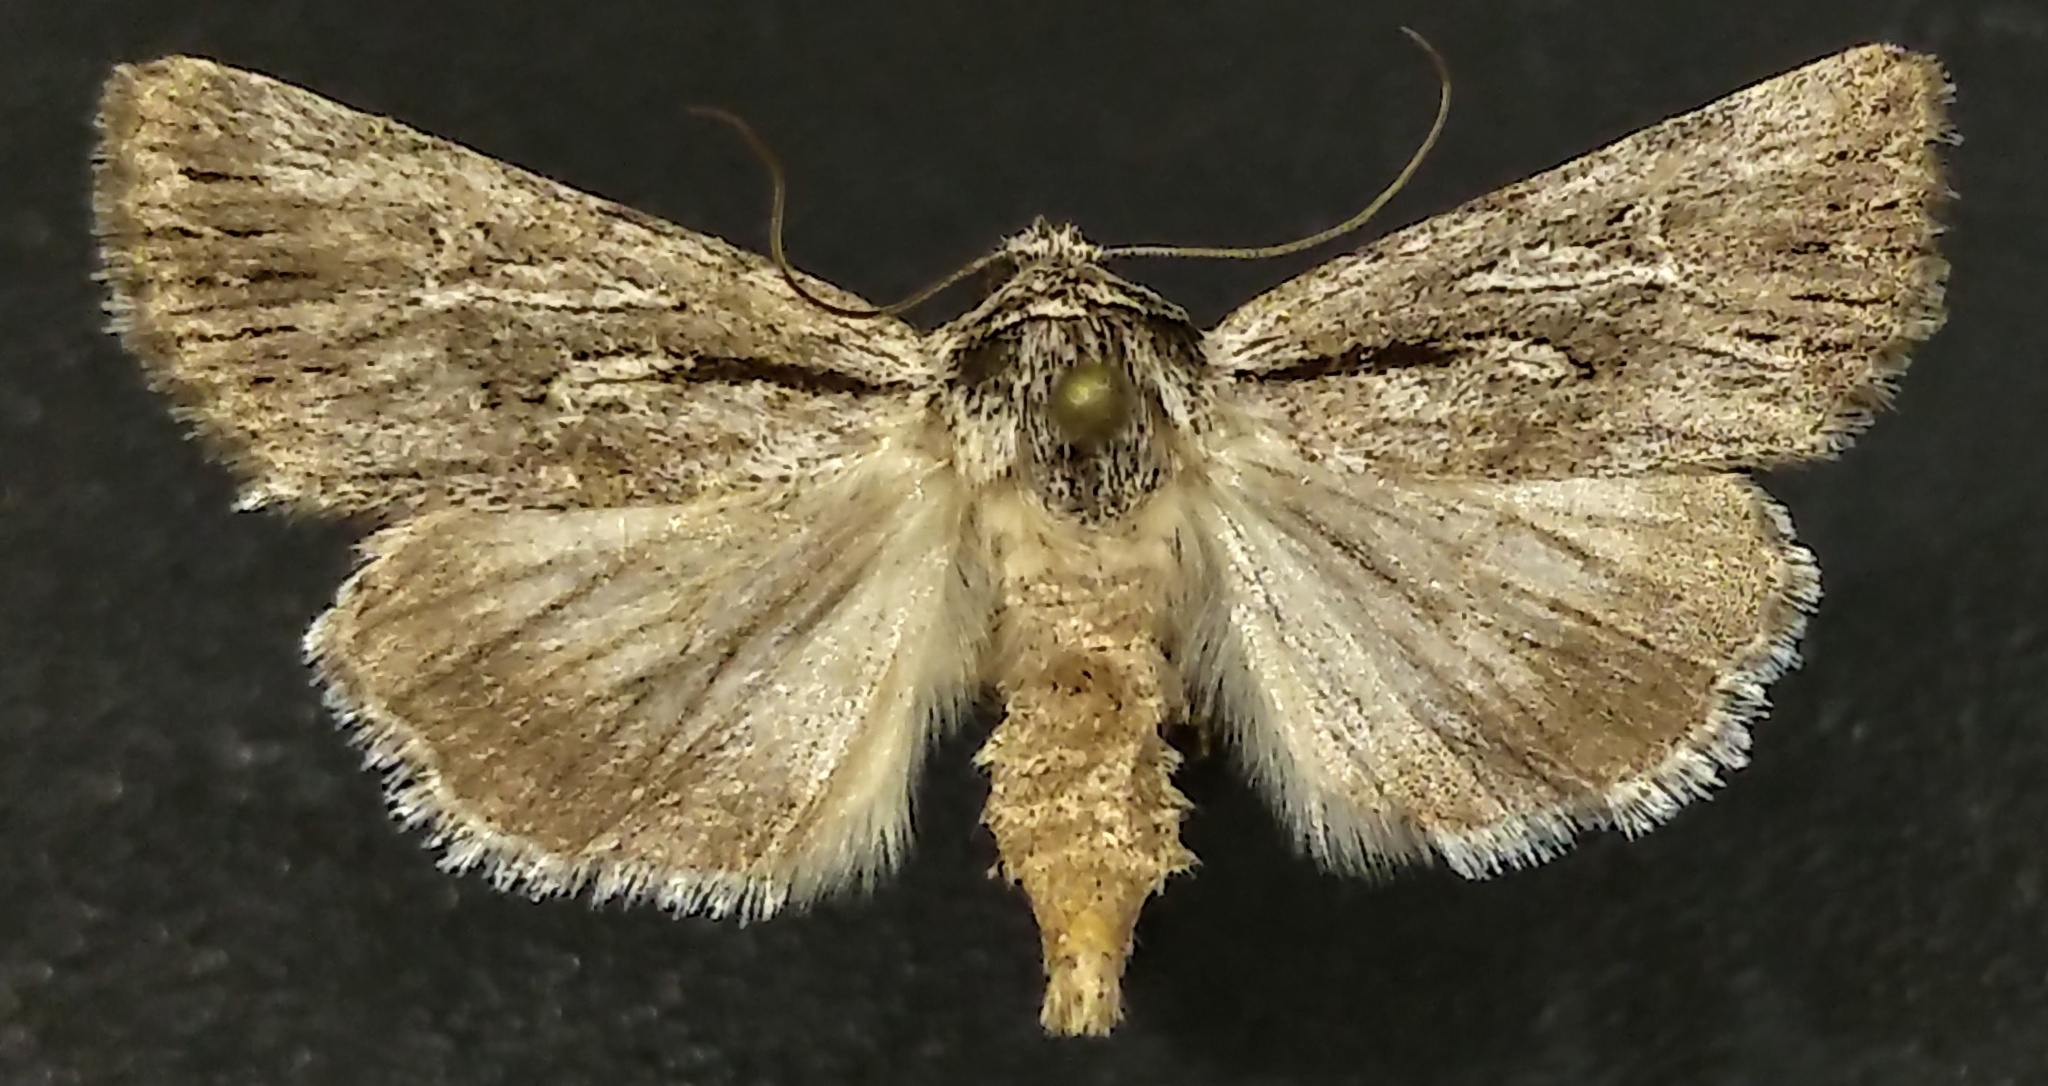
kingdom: Animalia
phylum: Arthropoda
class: Insecta
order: Lepidoptera
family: Noctuidae
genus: Sympistis
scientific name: Sympistis mackiei
